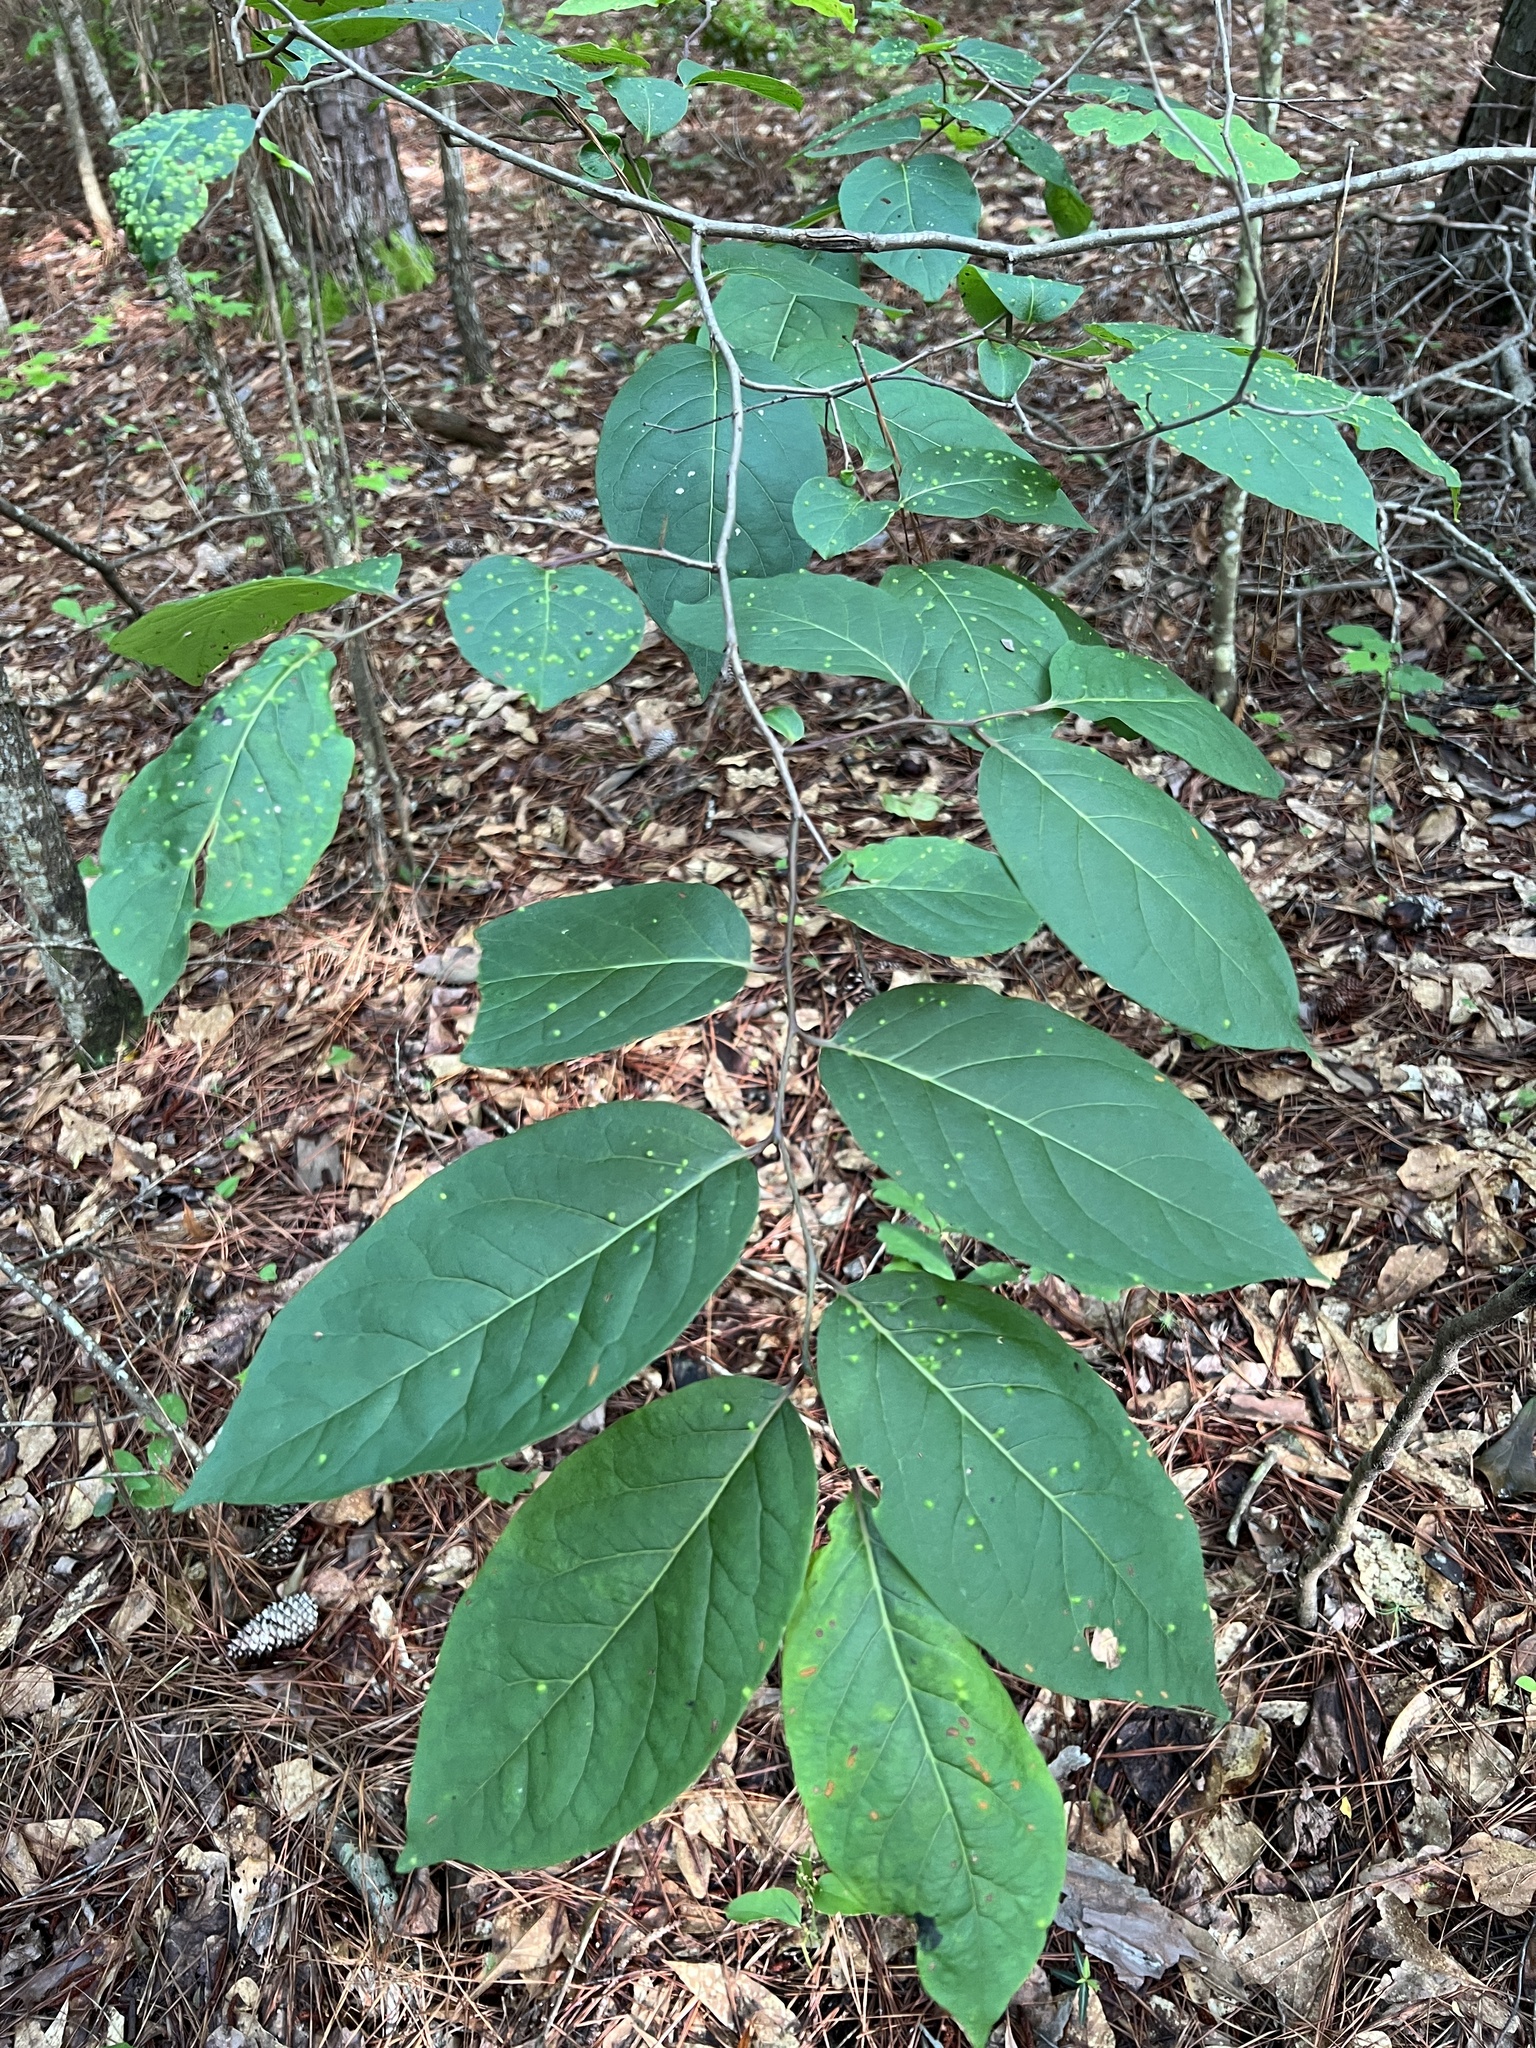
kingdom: Animalia
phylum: Arthropoda
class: Arachnida
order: Trombidiformes
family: Eriophyidae
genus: Aceria
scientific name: Aceria
